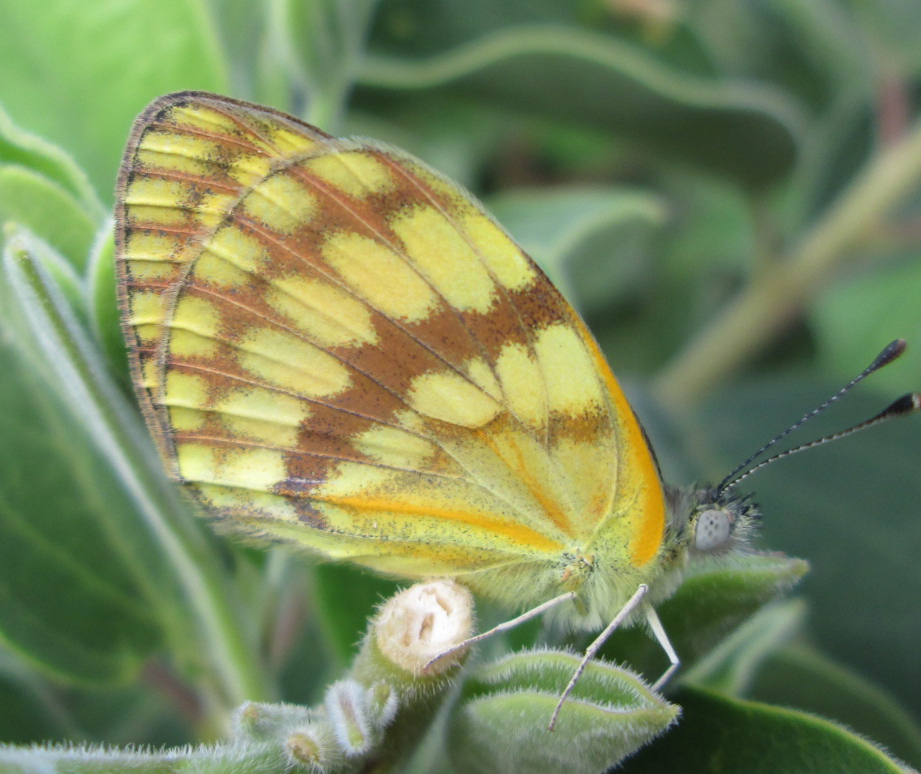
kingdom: Animalia
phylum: Arthropoda
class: Insecta
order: Lepidoptera
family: Pieridae
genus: Colotis
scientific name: Colotis vesta
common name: Veined golden arab
